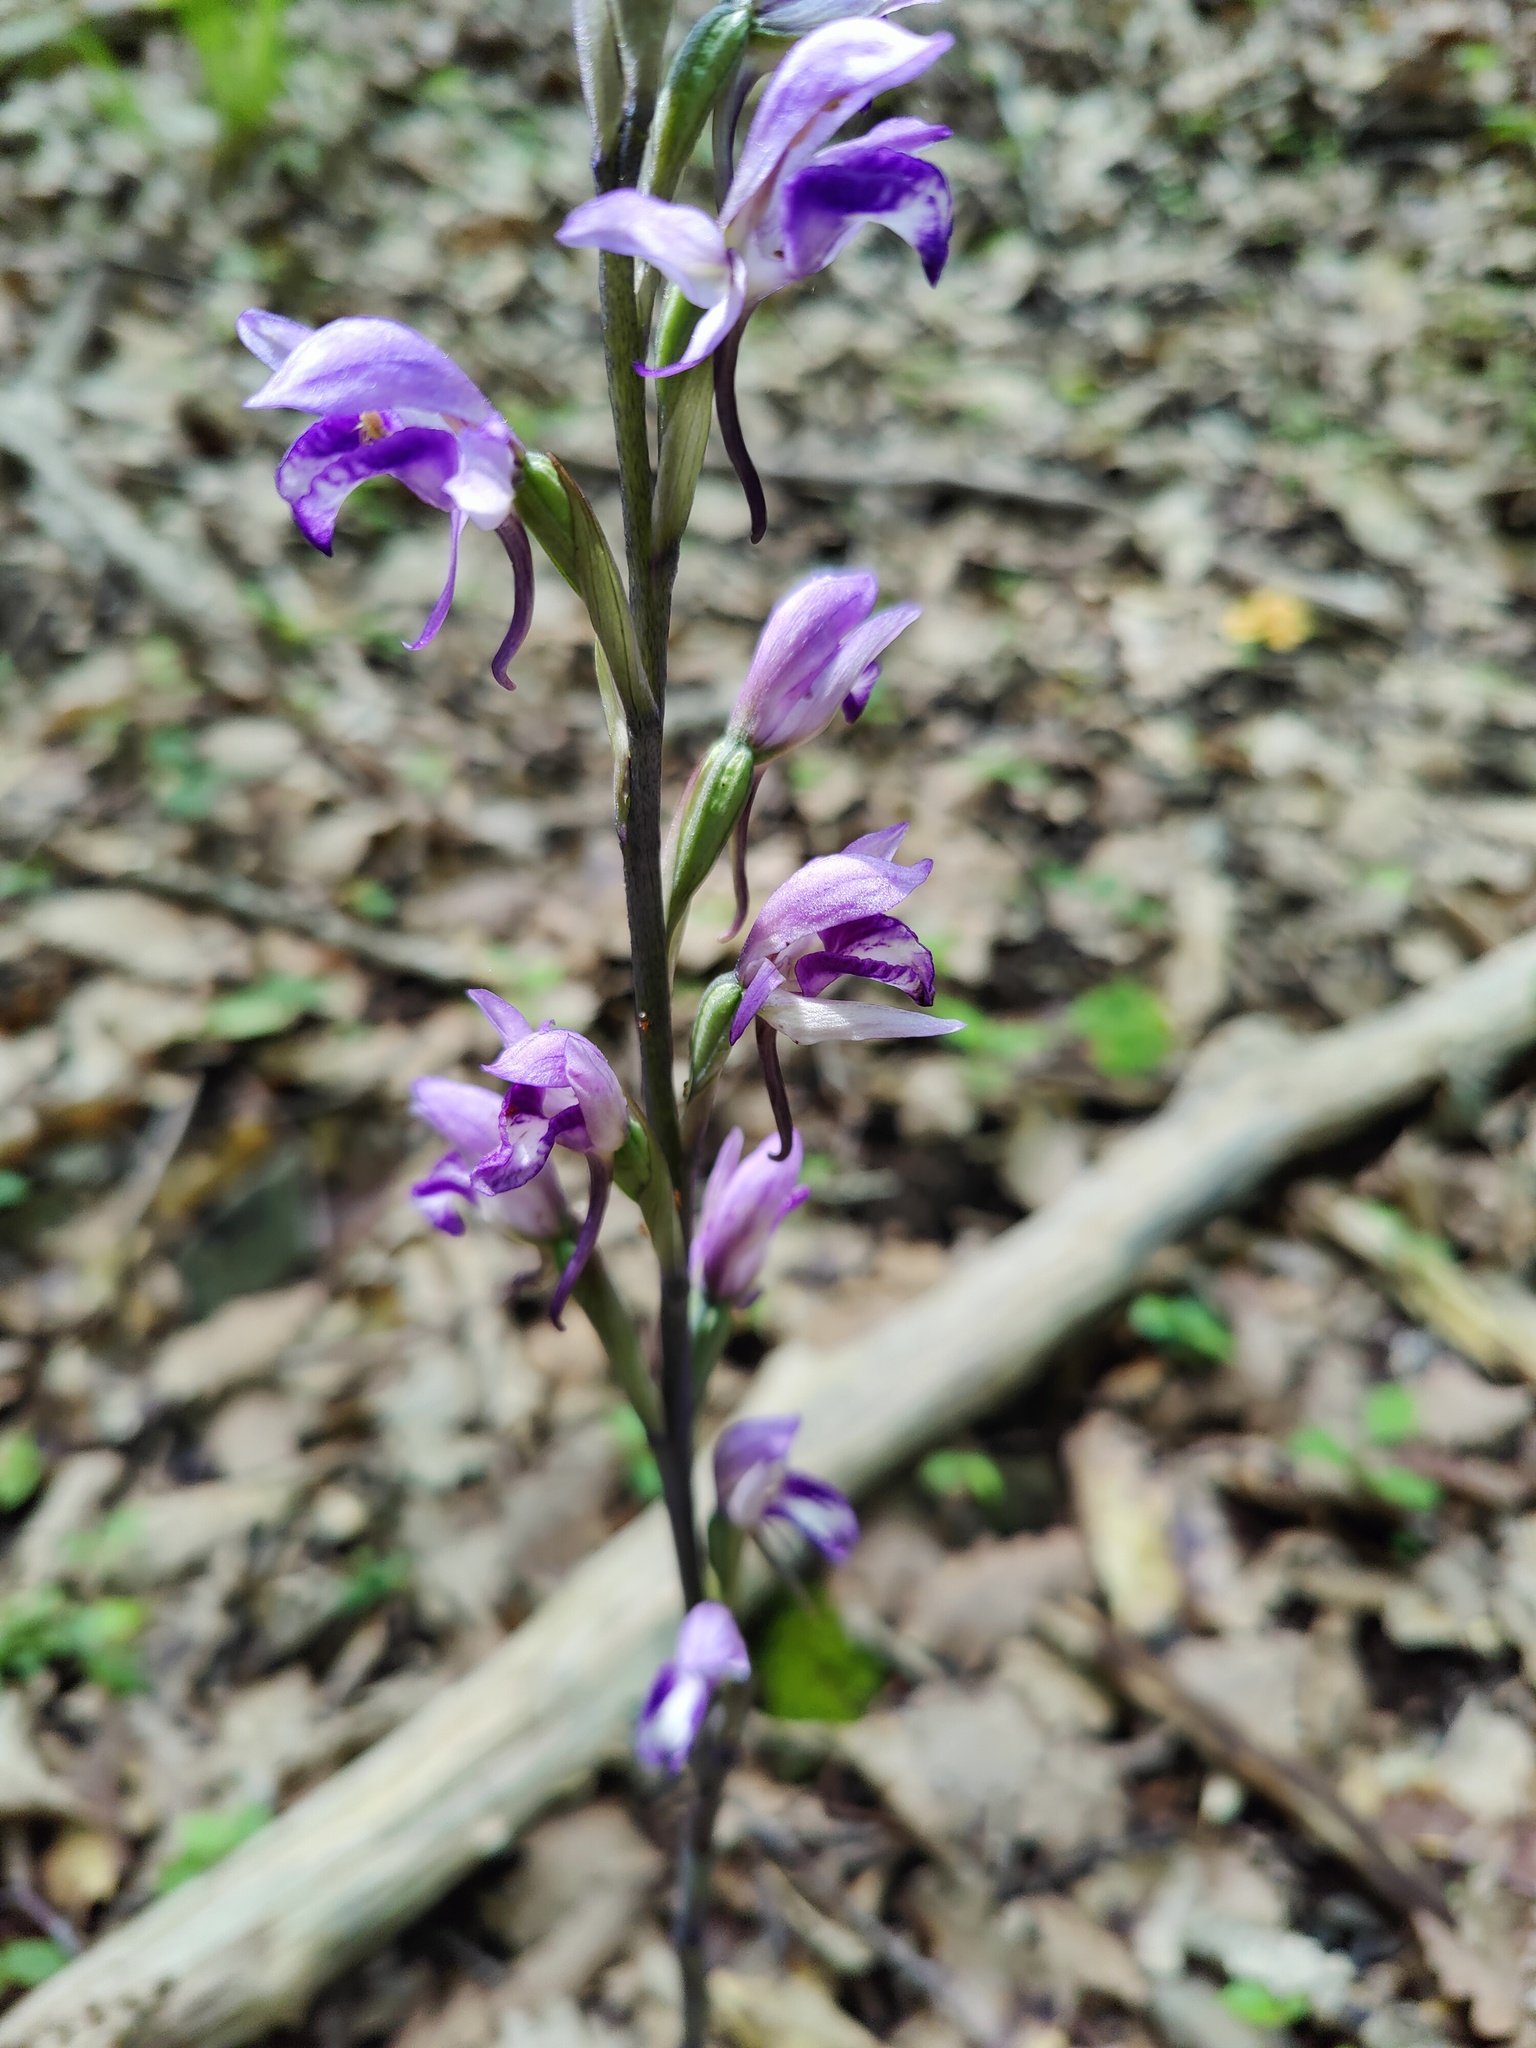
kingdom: Plantae
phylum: Tracheophyta
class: Liliopsida
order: Asparagales
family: Orchidaceae
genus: Limodorum
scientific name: Limodorum abortivum
